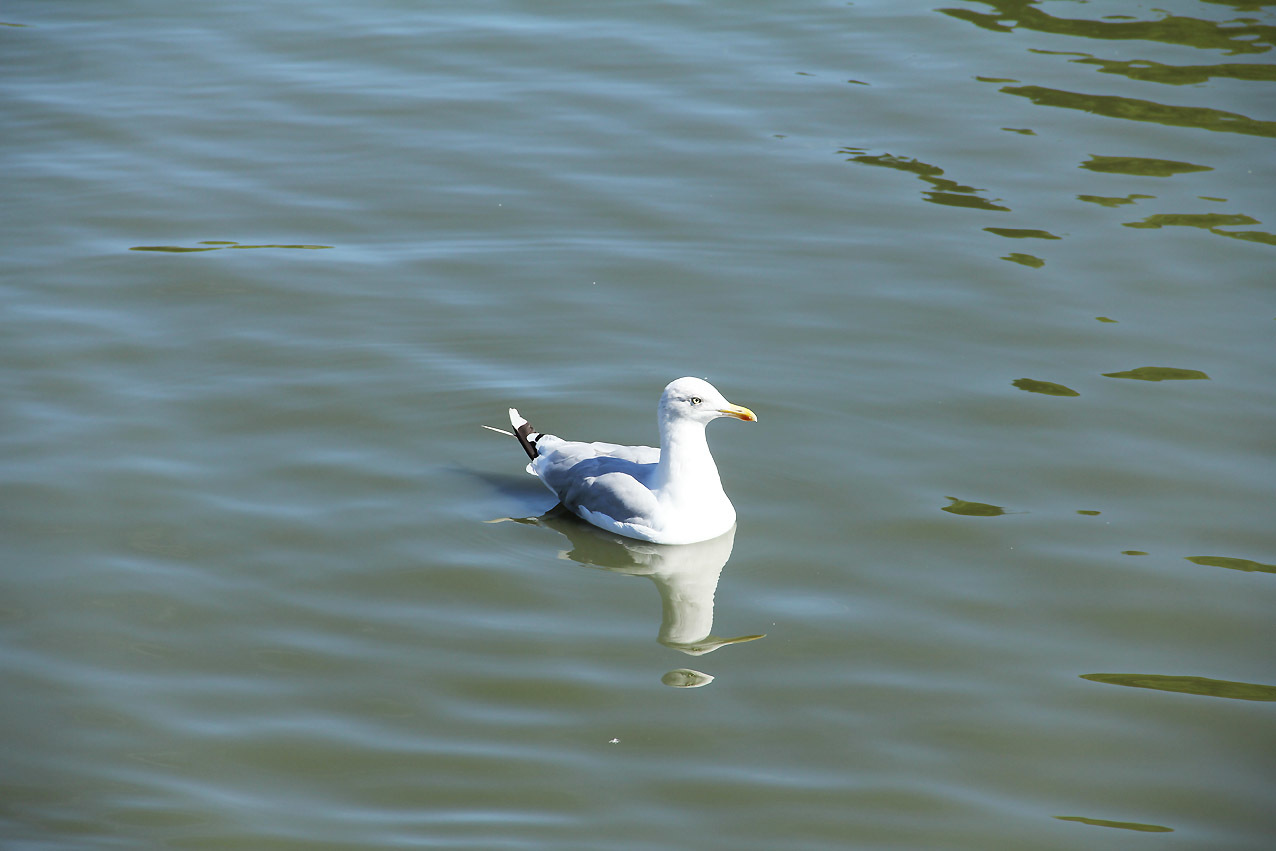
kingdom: Animalia
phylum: Chordata
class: Aves
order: Charadriiformes
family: Laridae
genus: Larus
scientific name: Larus argentatus
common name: Herring gull
